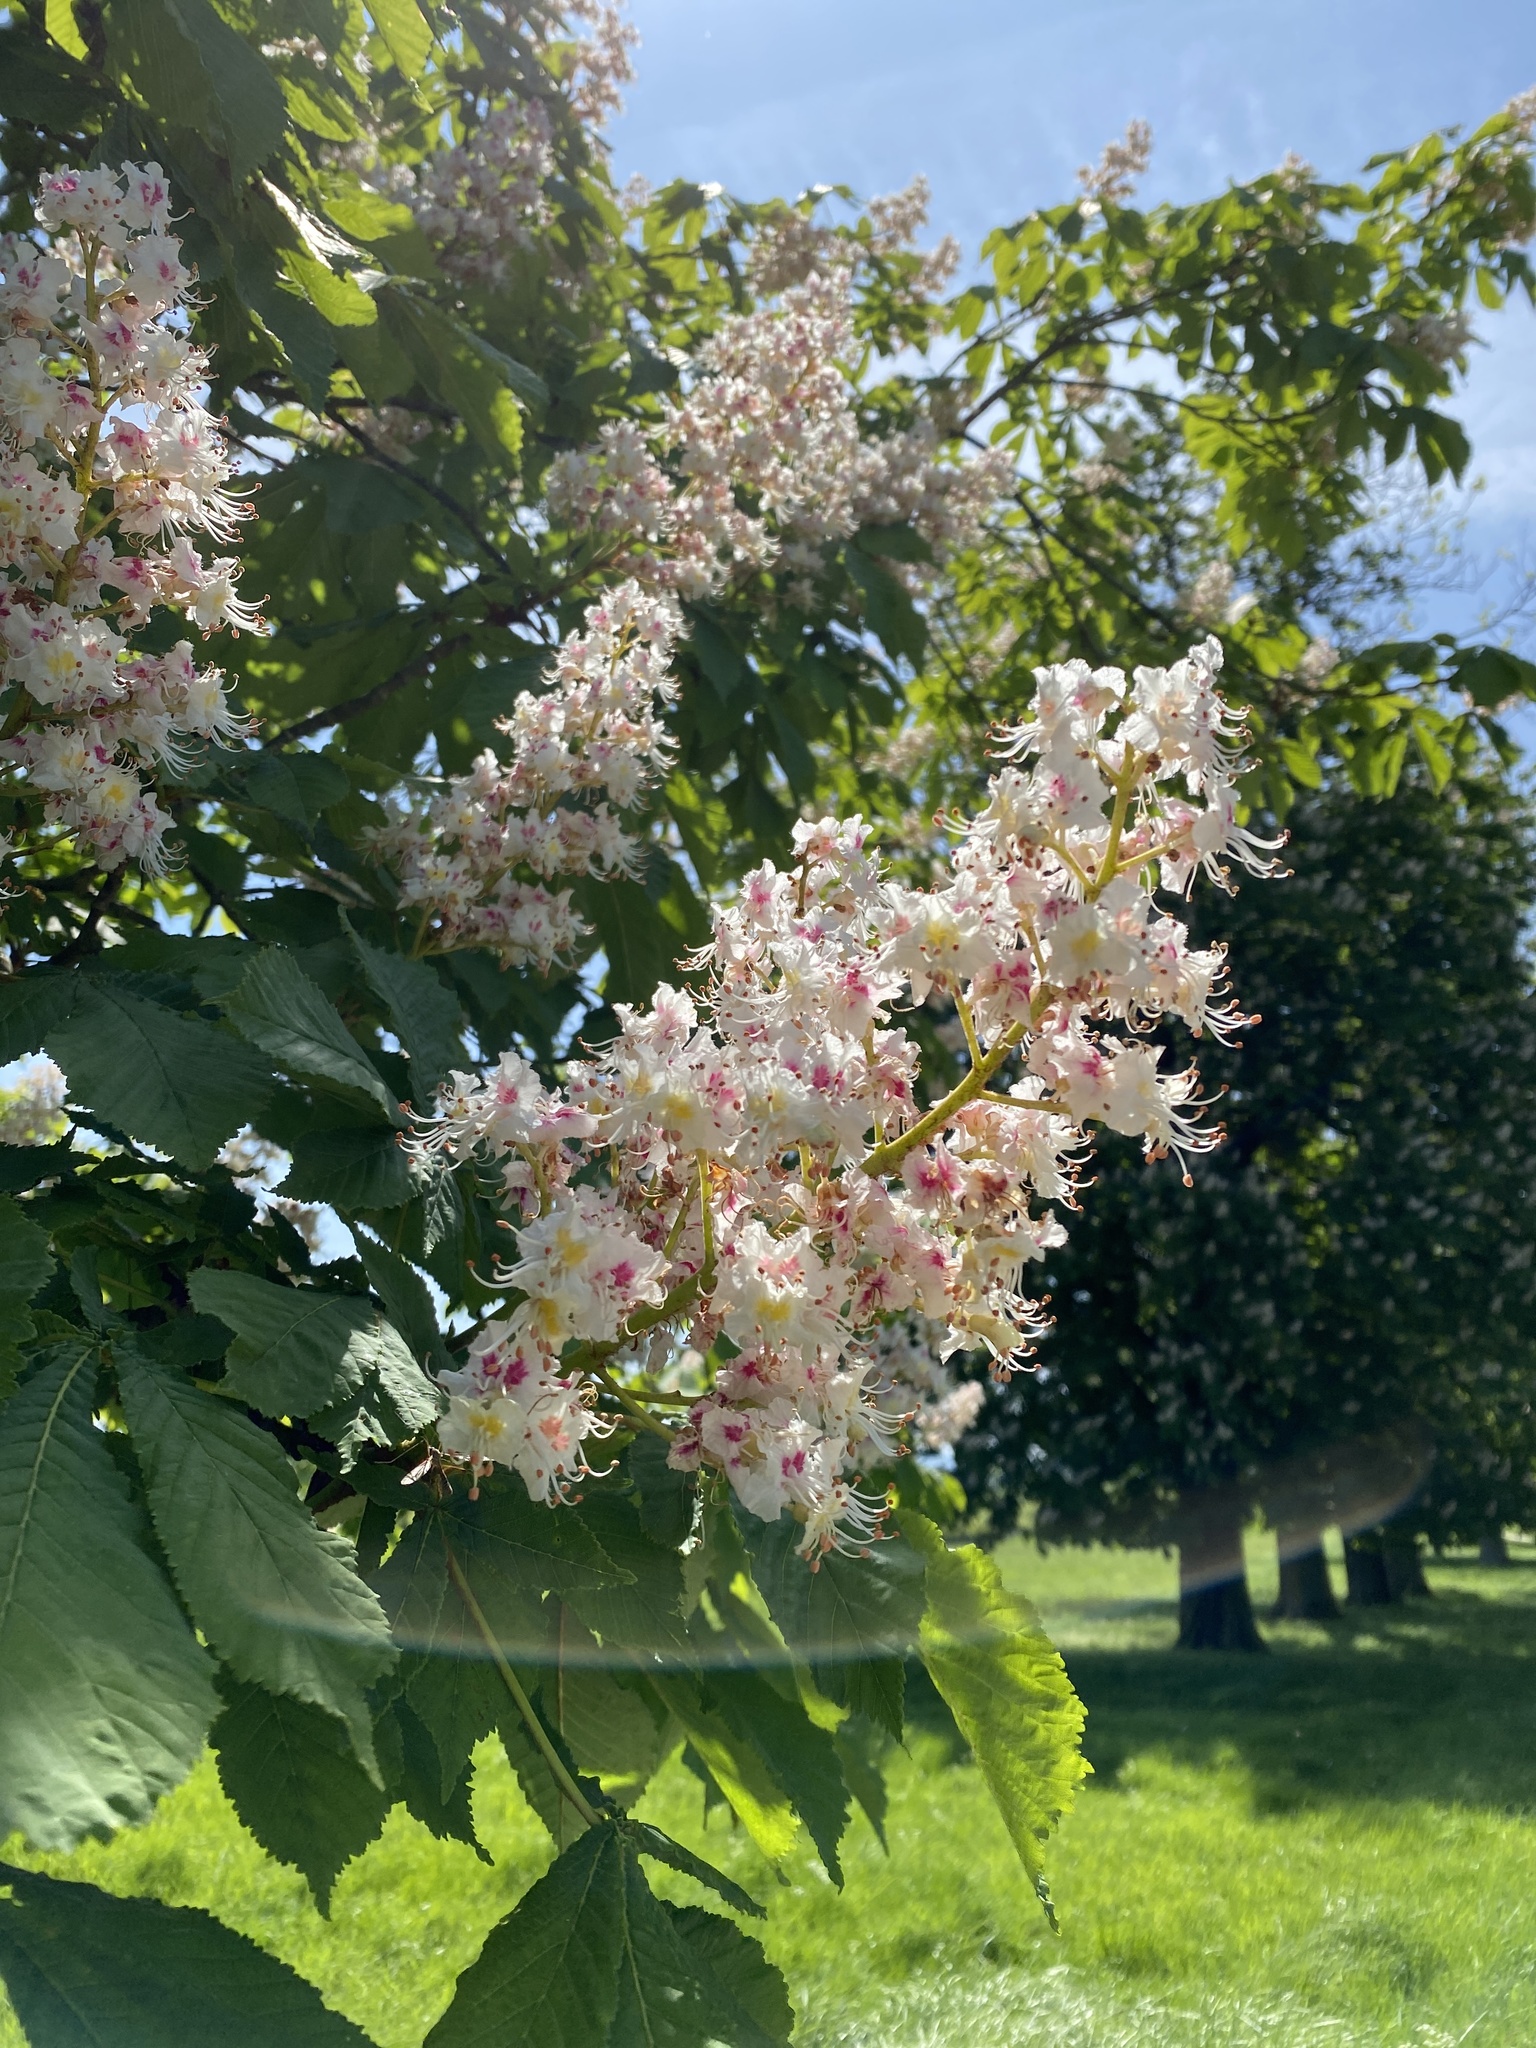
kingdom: Plantae
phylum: Tracheophyta
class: Magnoliopsida
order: Sapindales
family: Sapindaceae
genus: Aesculus
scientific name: Aesculus hippocastanum
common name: Horse-chestnut
